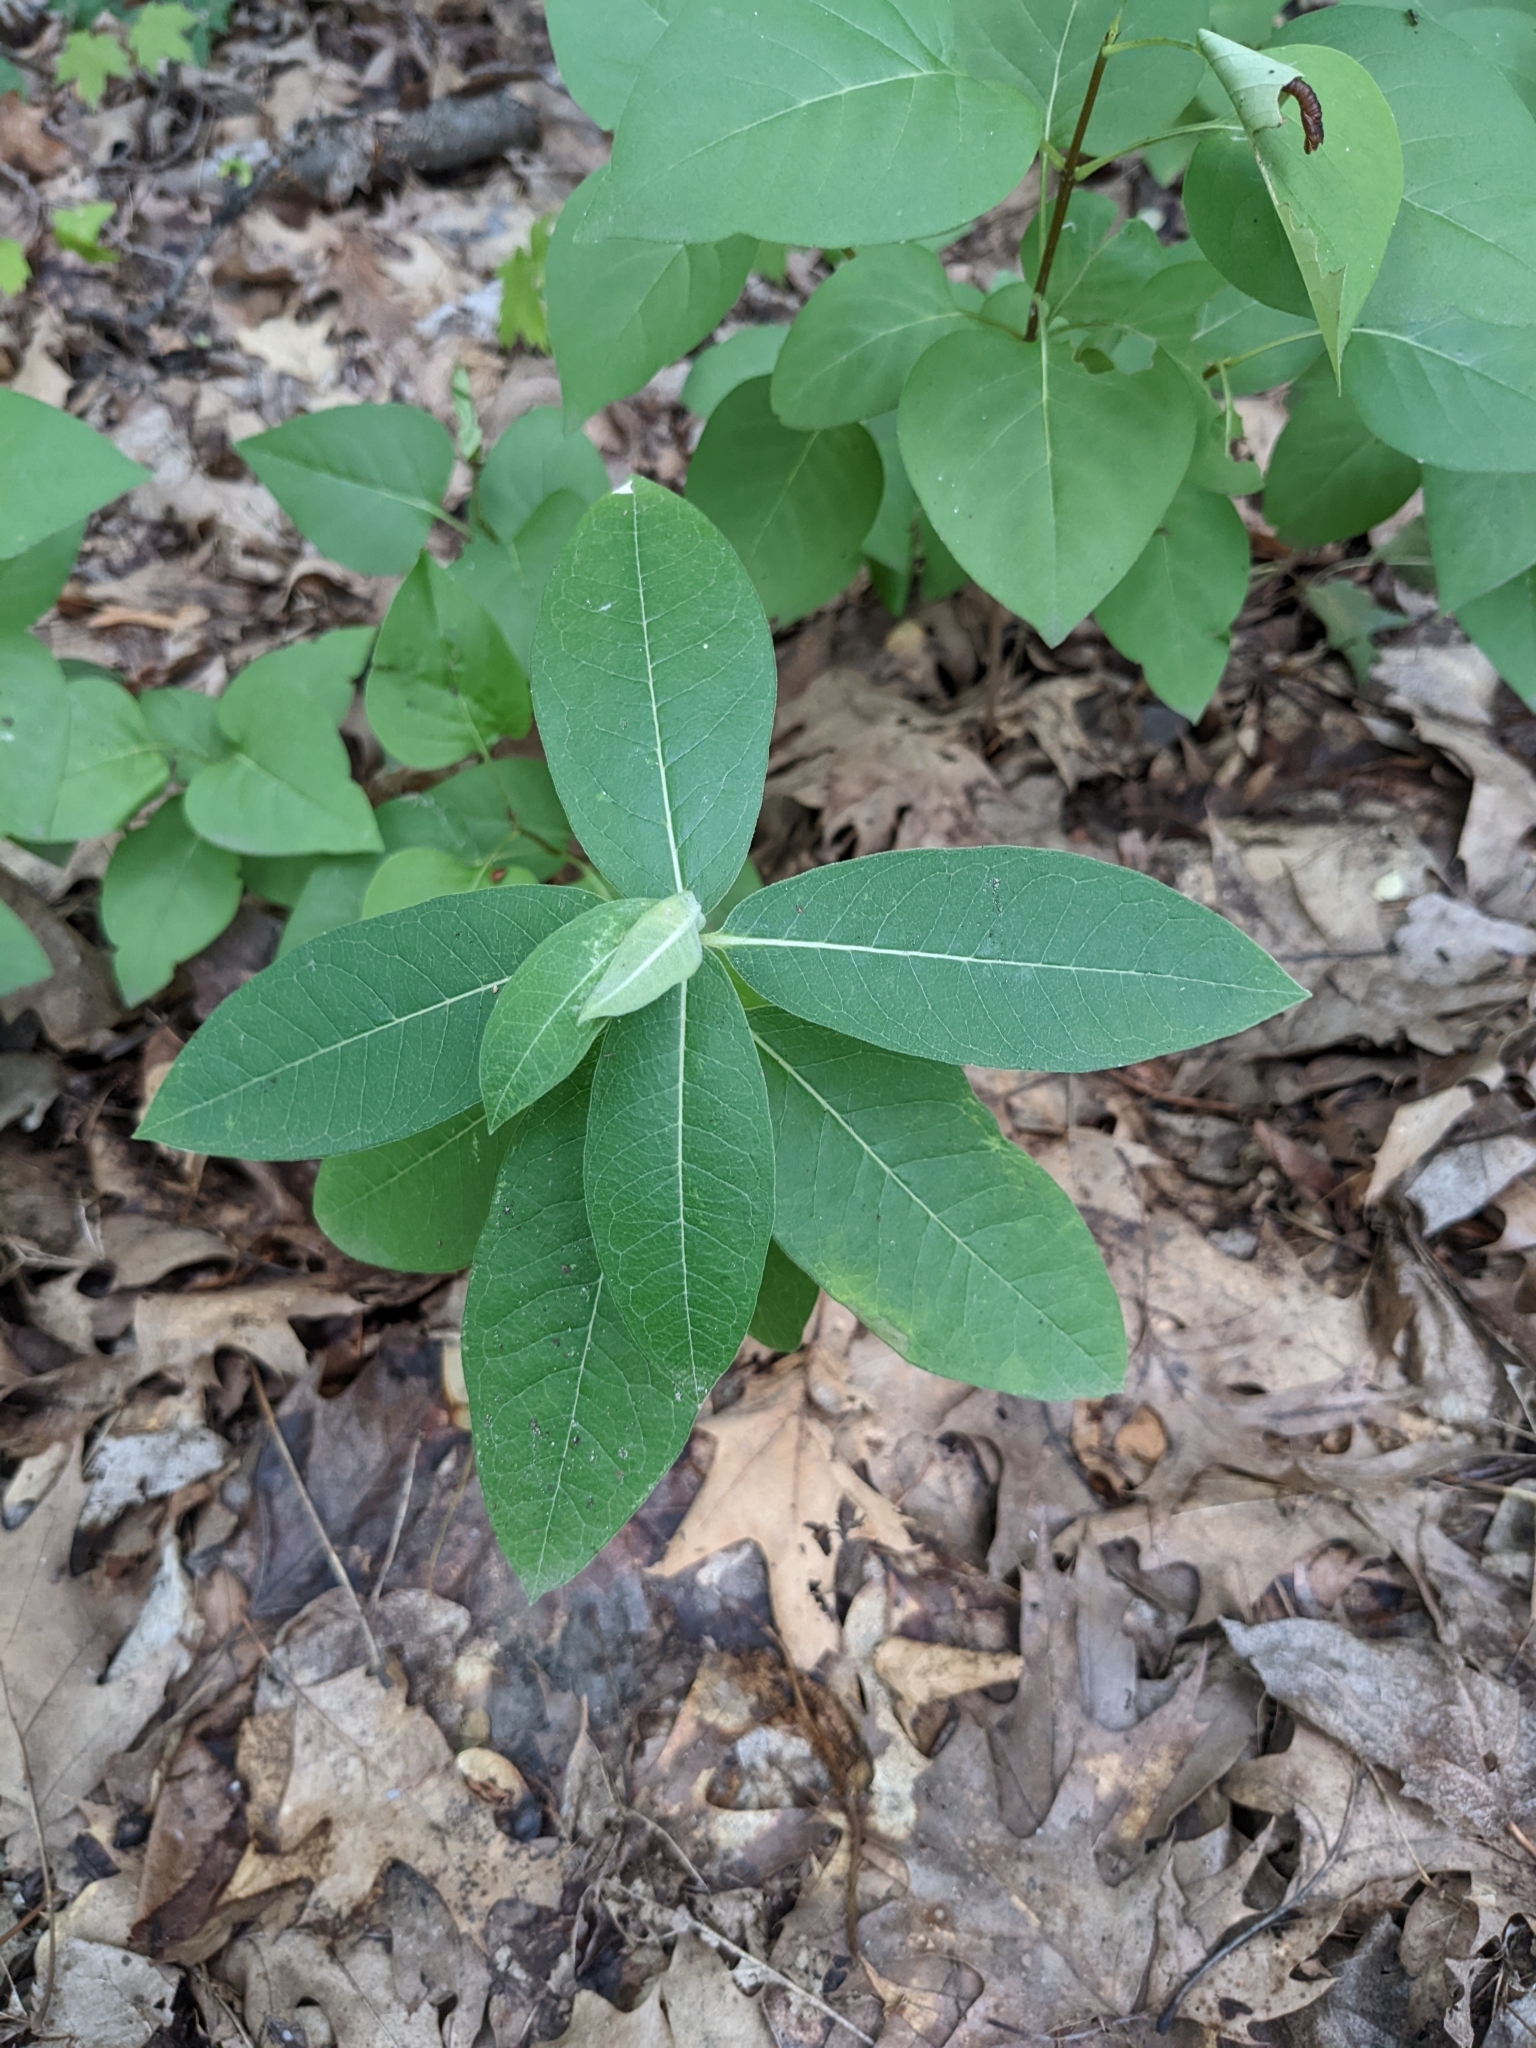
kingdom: Plantae
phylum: Tracheophyta
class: Magnoliopsida
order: Gentianales
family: Apocynaceae
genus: Asclepias
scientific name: Asclepias syriaca
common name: Common milkweed
